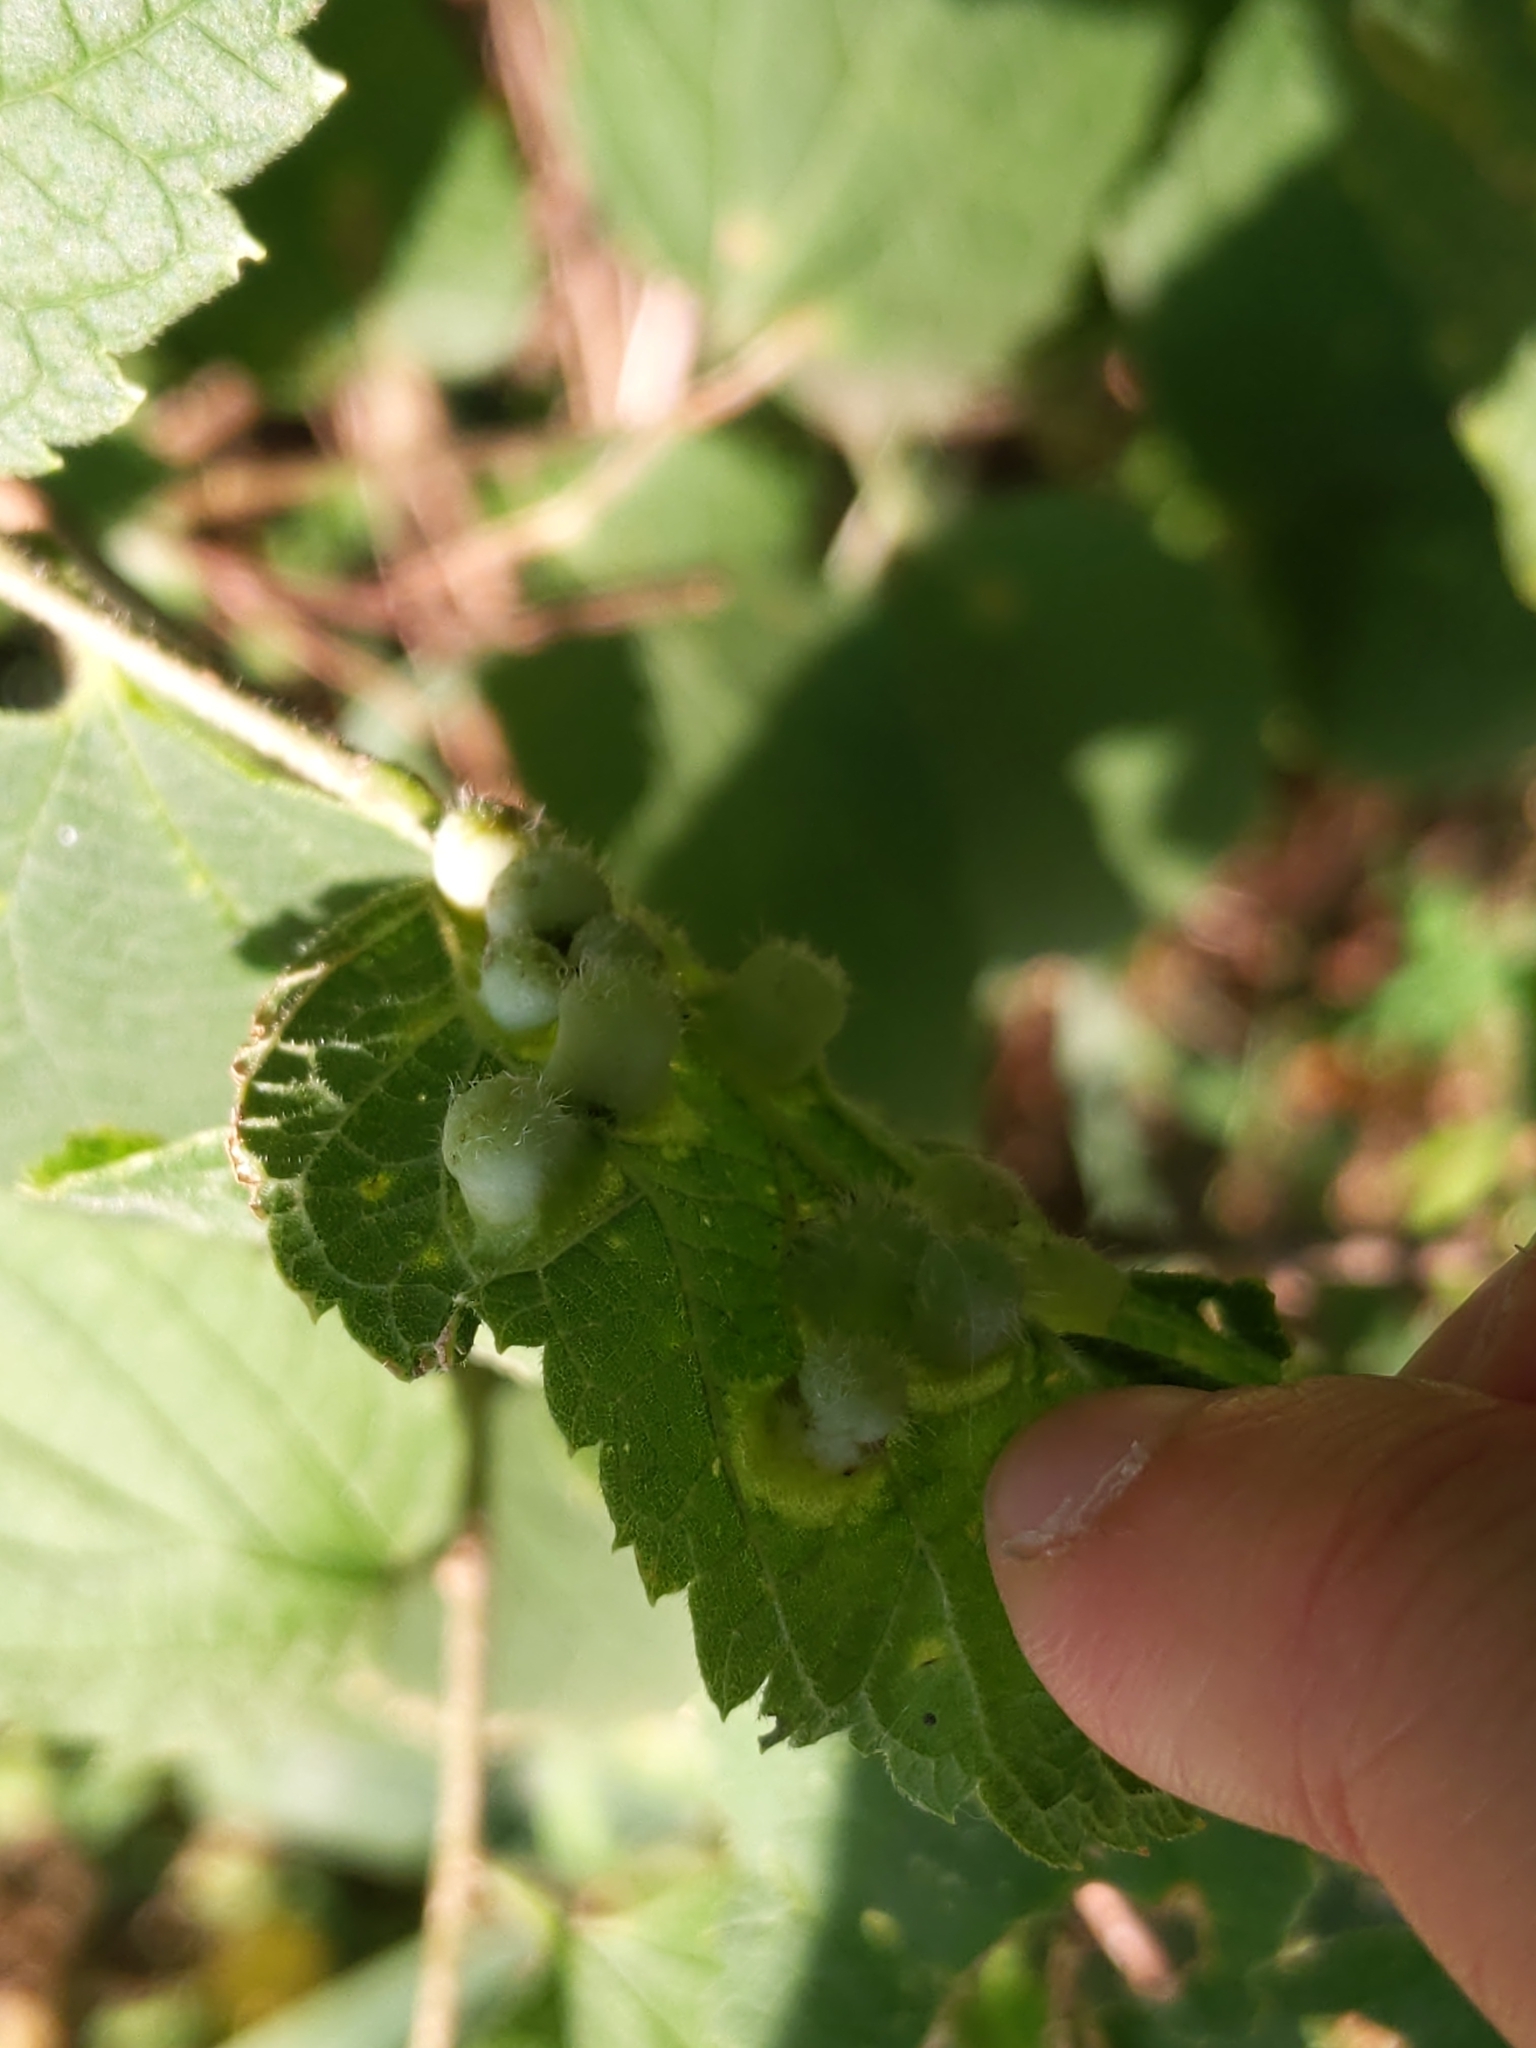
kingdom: Animalia
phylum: Arthropoda
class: Insecta
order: Hemiptera
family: Aphalaridae
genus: Pachypsylla
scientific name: Pachypsylla celtidismamma
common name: Hackberry nipplegall psyllid
